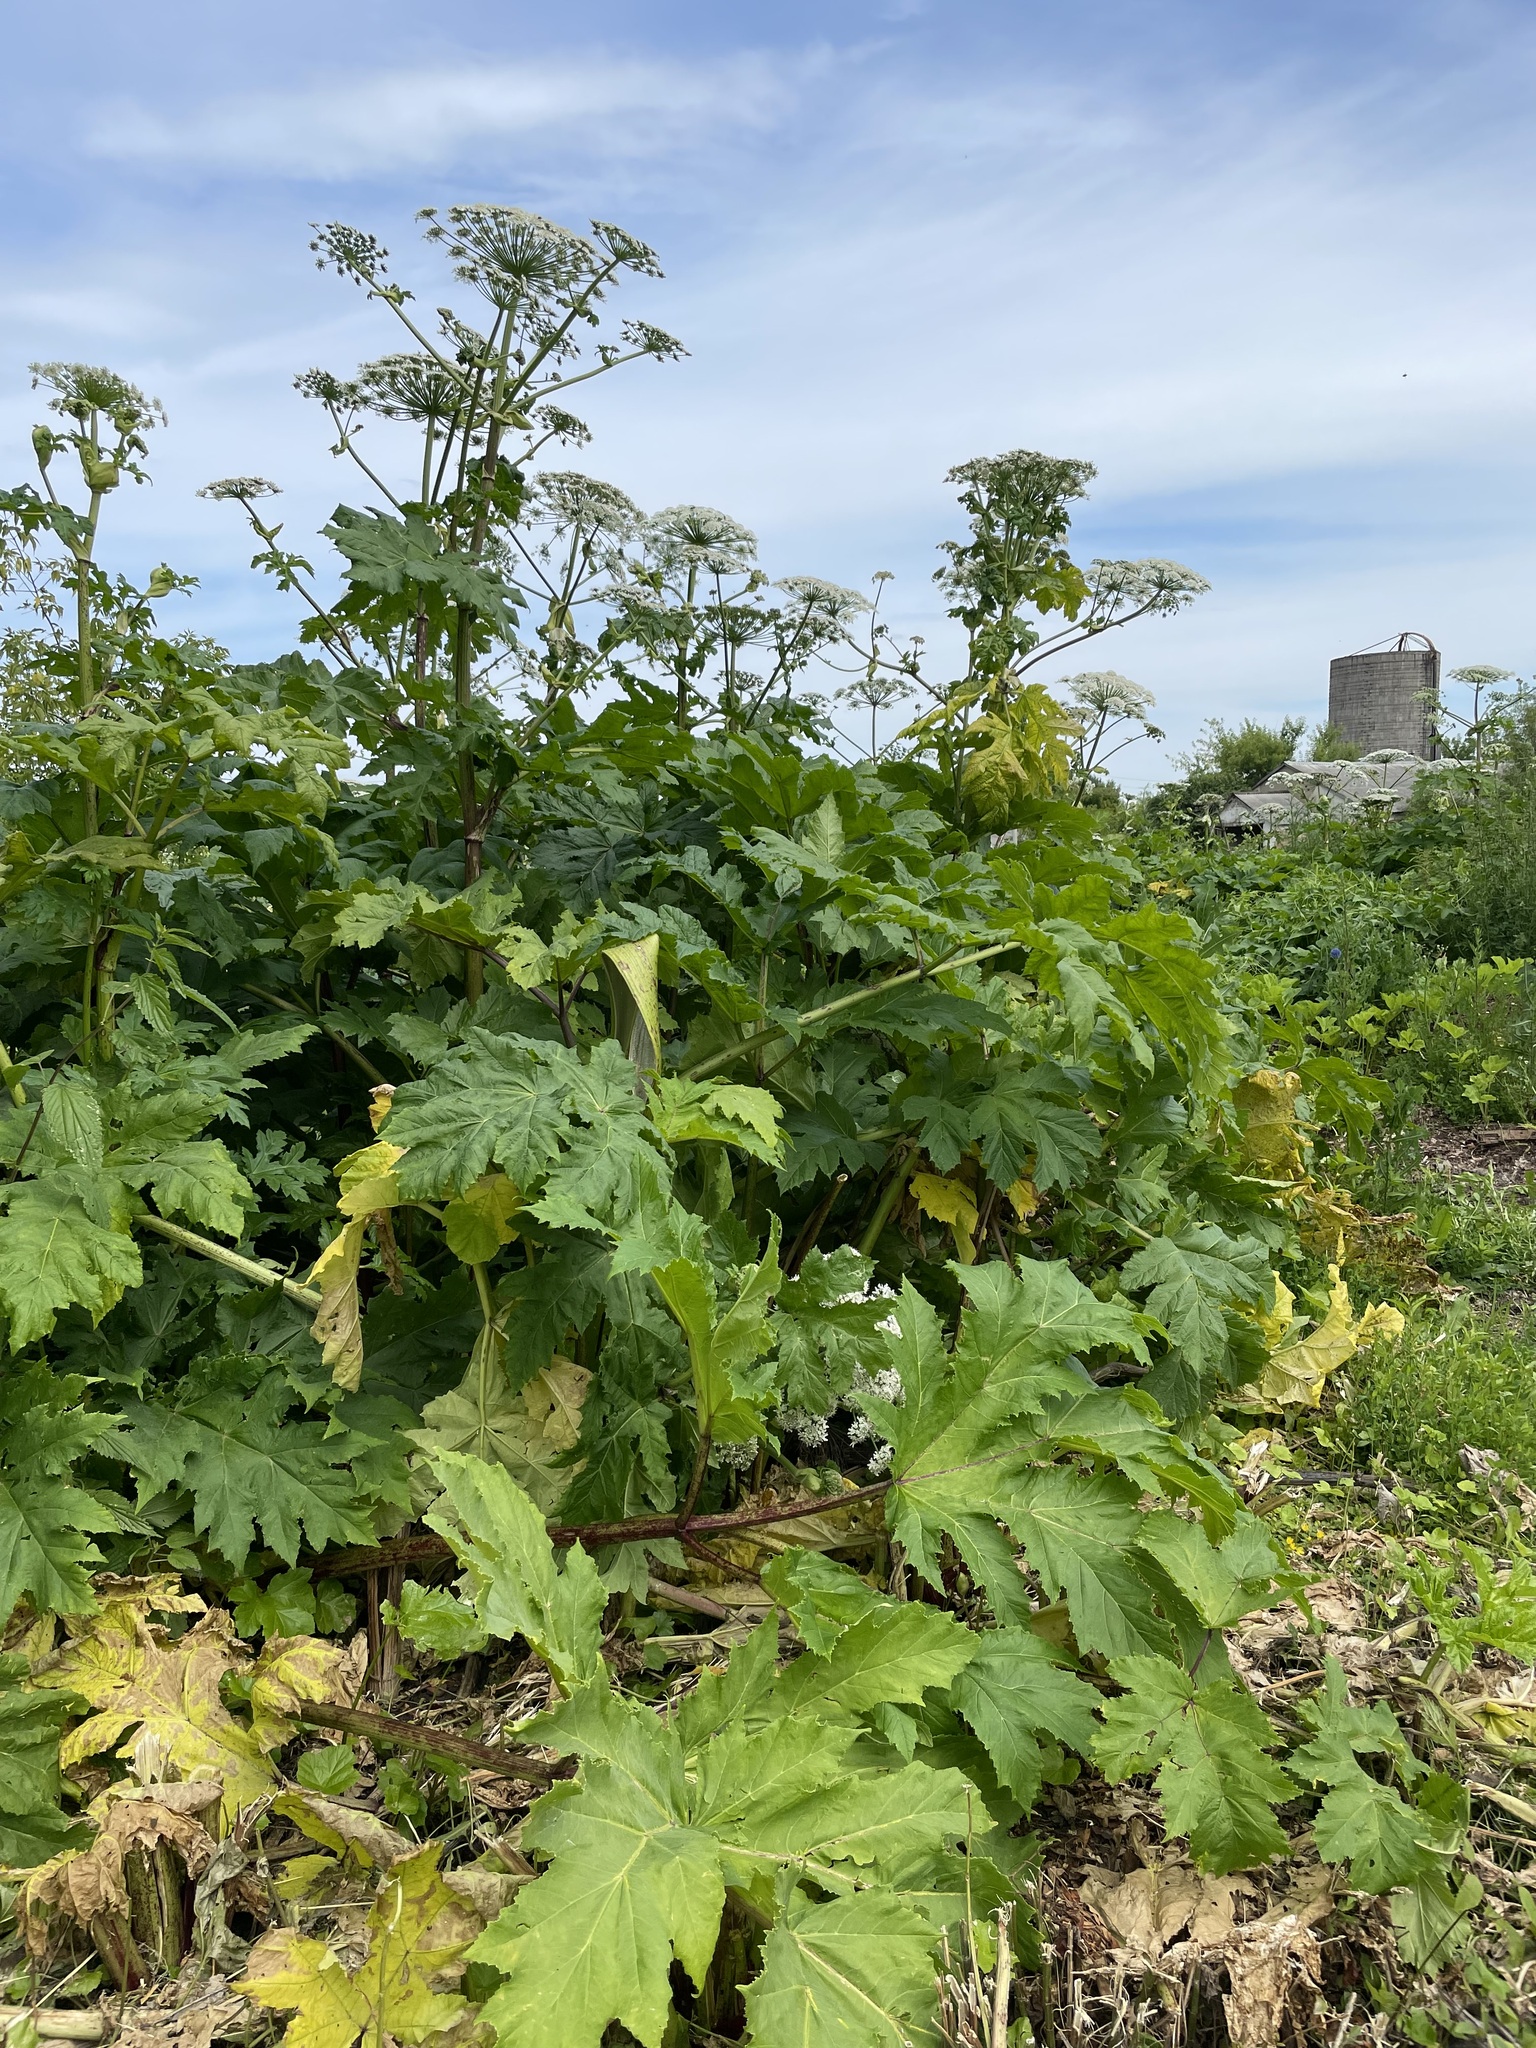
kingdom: Plantae
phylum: Tracheophyta
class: Magnoliopsida
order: Apiales
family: Apiaceae
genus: Heracleum
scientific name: Heracleum sosnowskyi
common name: Sosnowsky's hogweed
